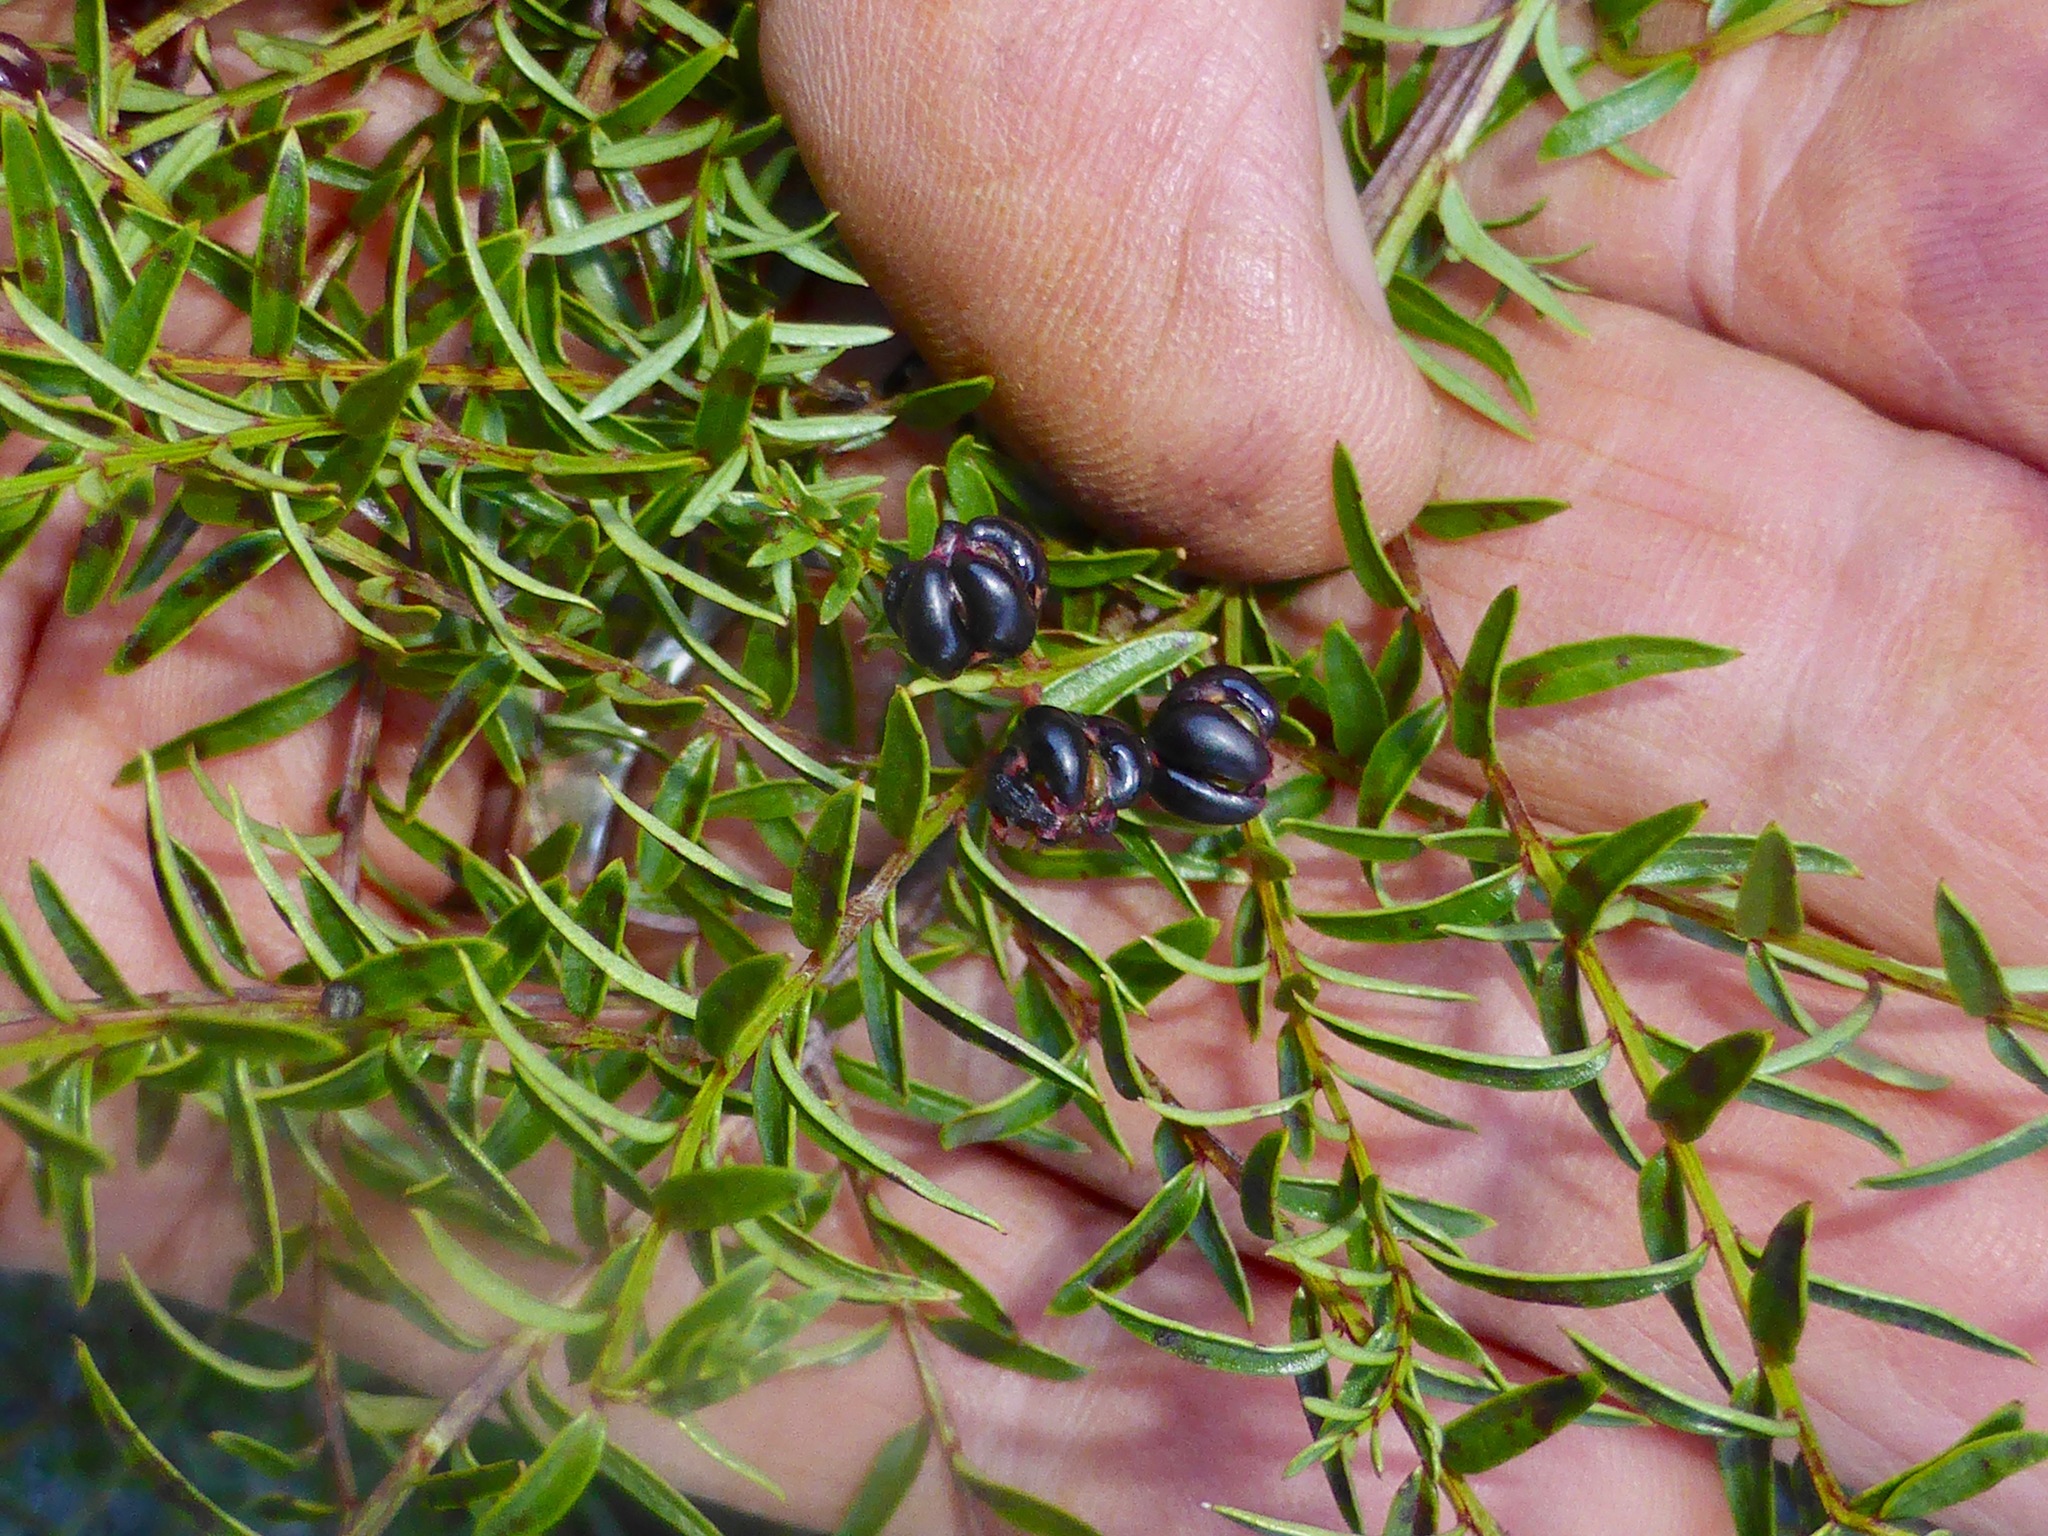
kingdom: Plantae
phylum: Tracheophyta
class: Magnoliopsida
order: Cucurbitales
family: Coriariaceae
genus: Coriaria
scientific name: Coriaria angustissima
